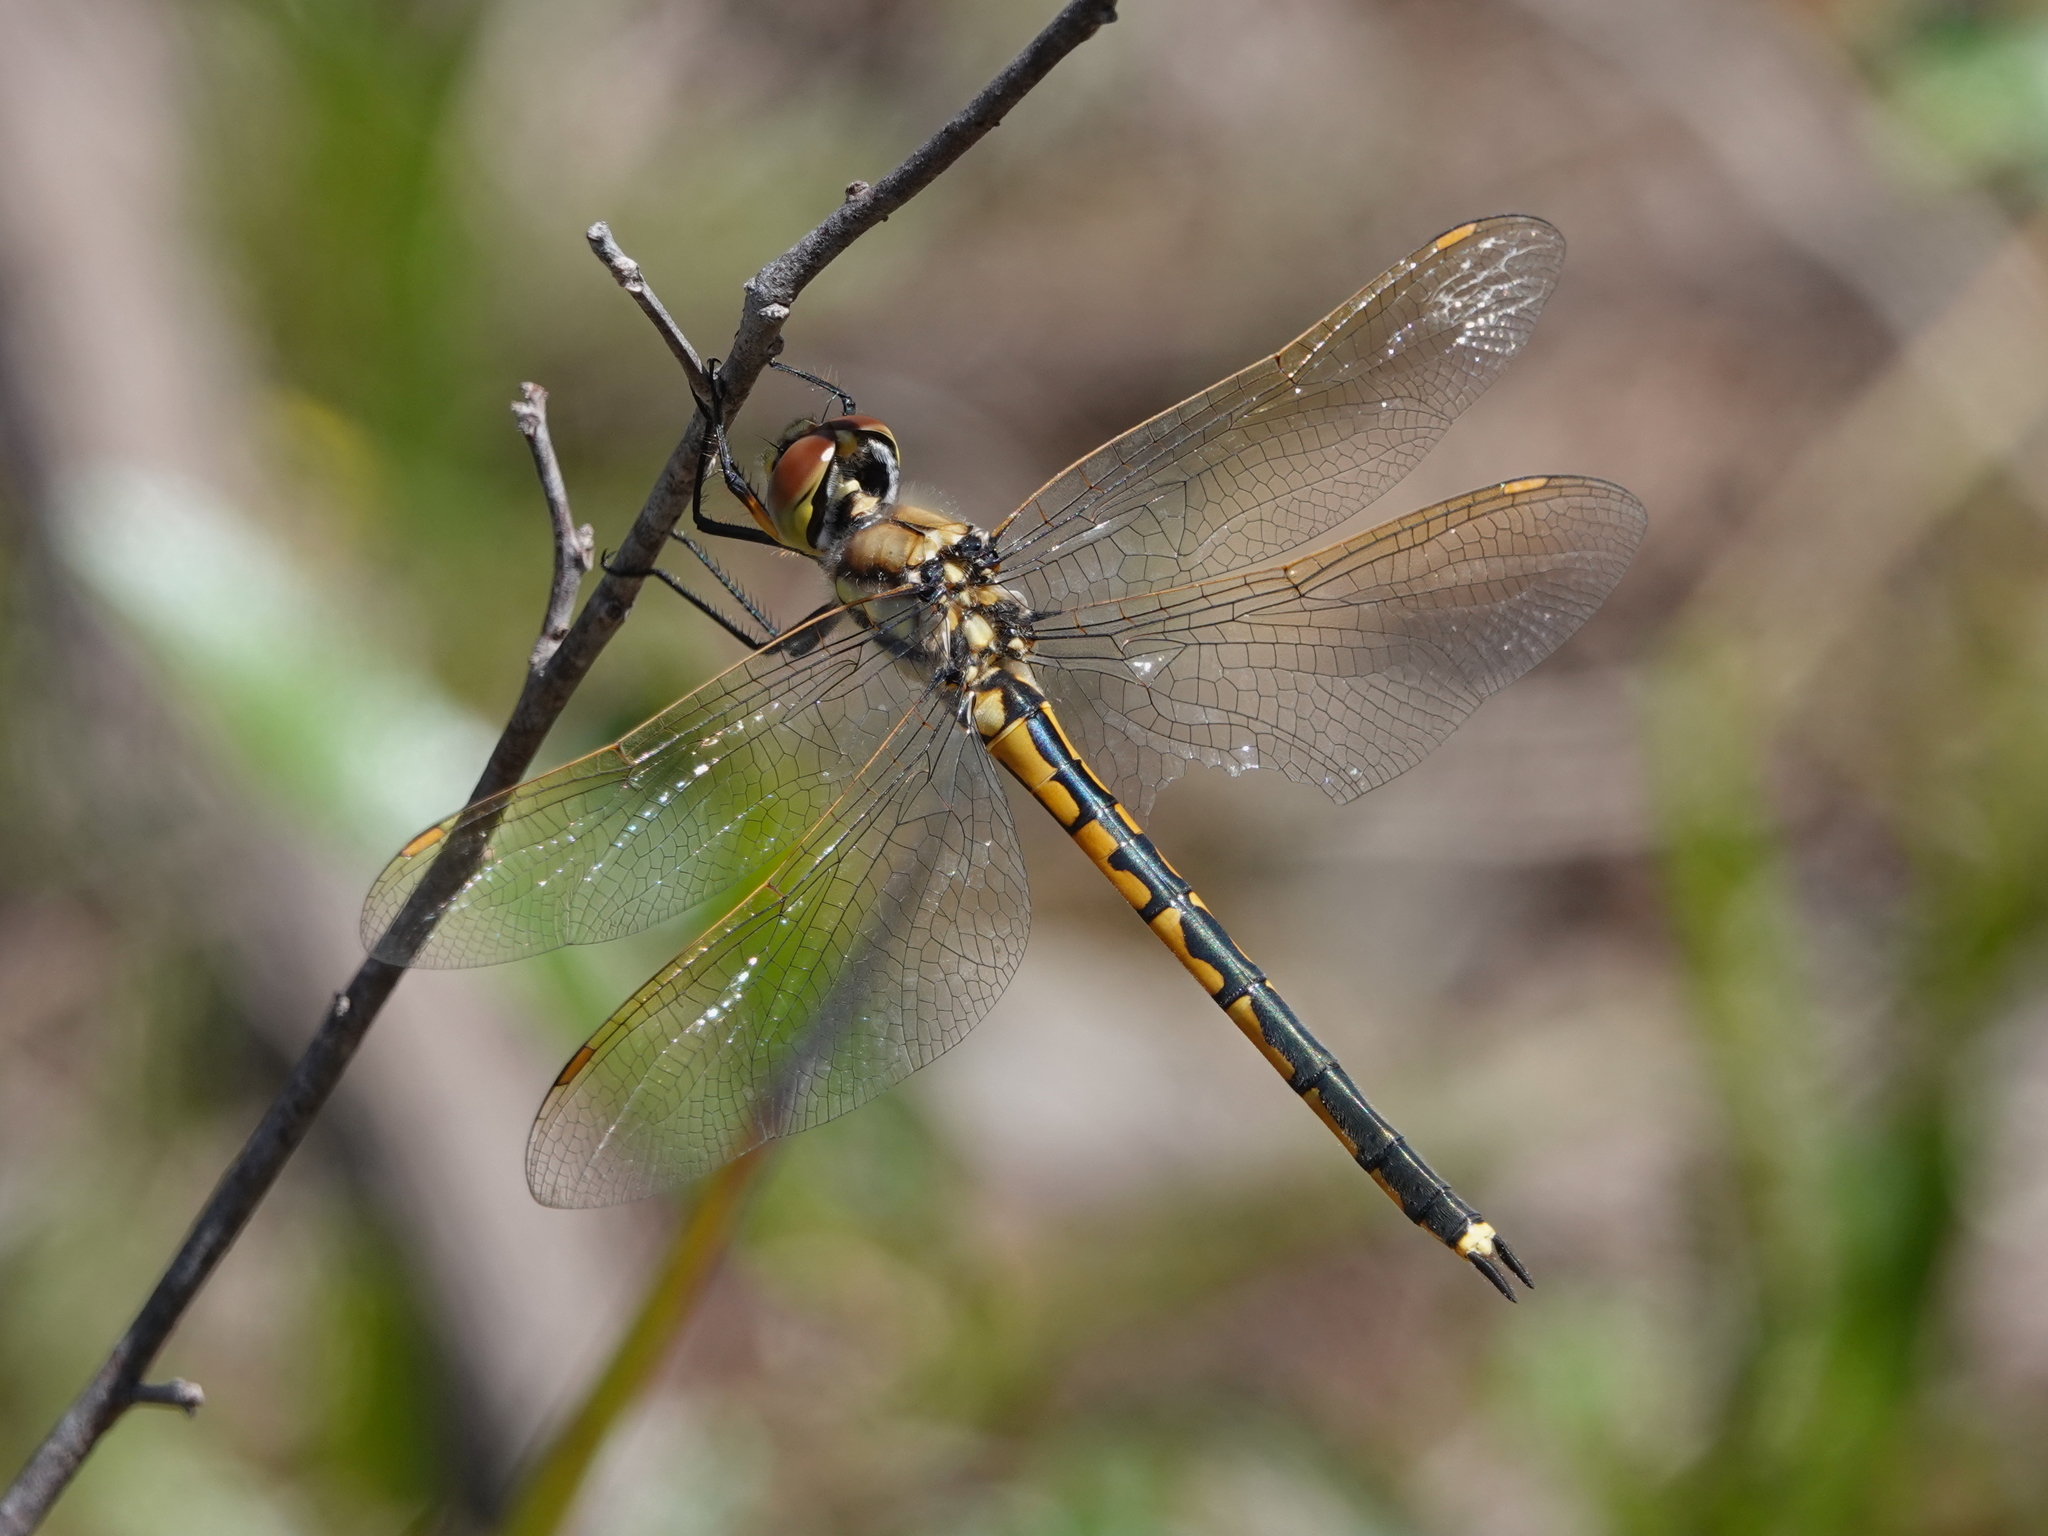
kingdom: Animalia
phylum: Arthropoda
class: Insecta
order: Odonata
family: Corduliidae
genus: Hemicordulia
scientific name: Hemicordulia tau
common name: Tau emerald
